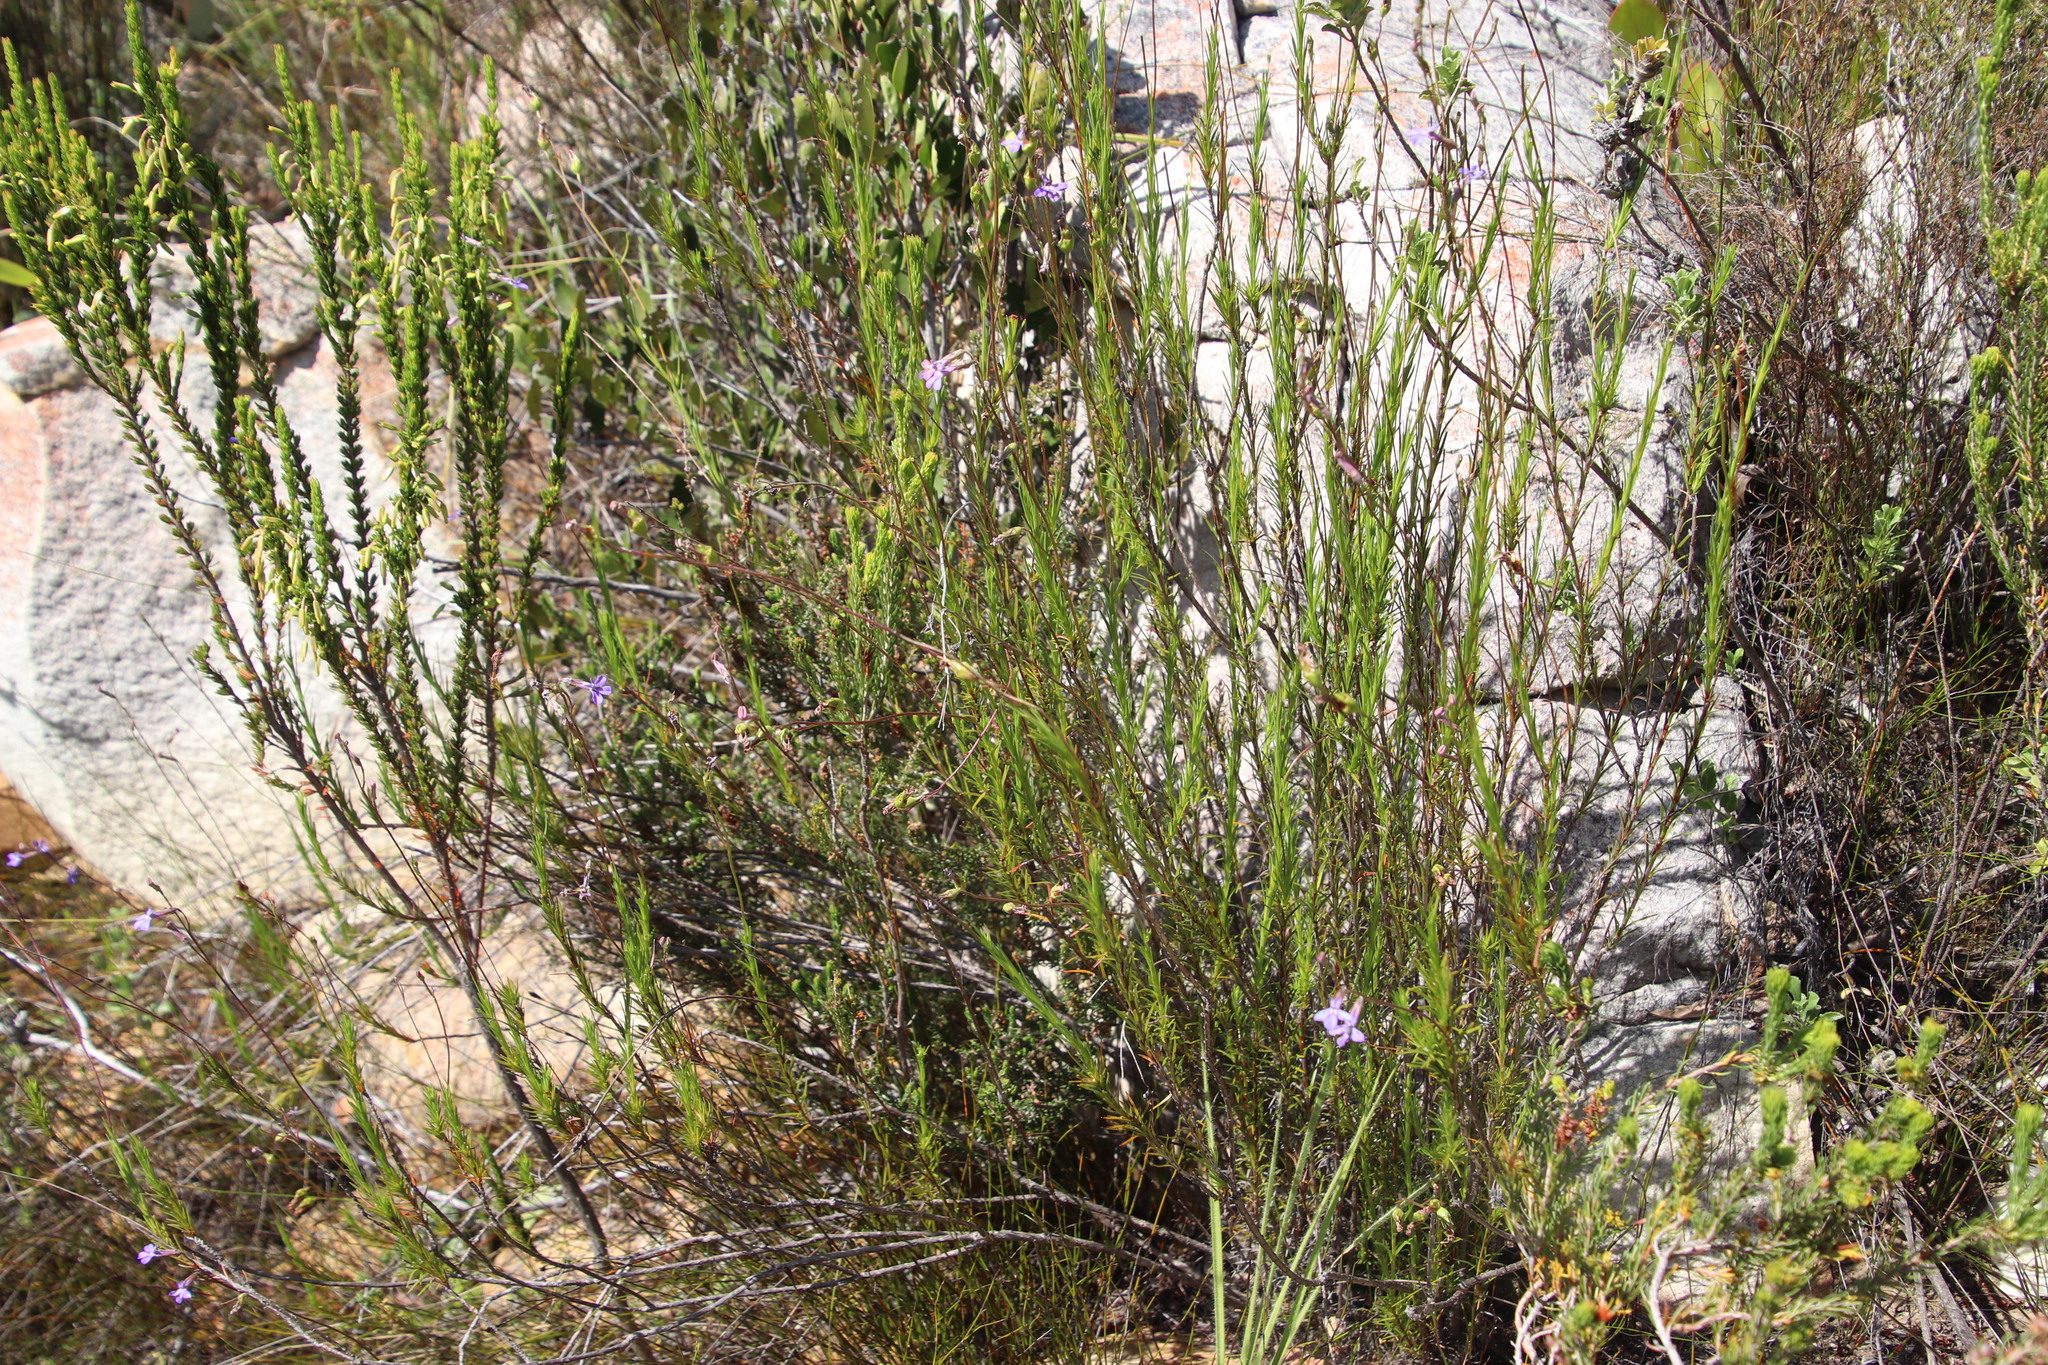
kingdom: Plantae
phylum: Tracheophyta
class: Magnoliopsida
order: Asterales
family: Campanulaceae
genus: Lobelia
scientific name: Lobelia pinifolia
